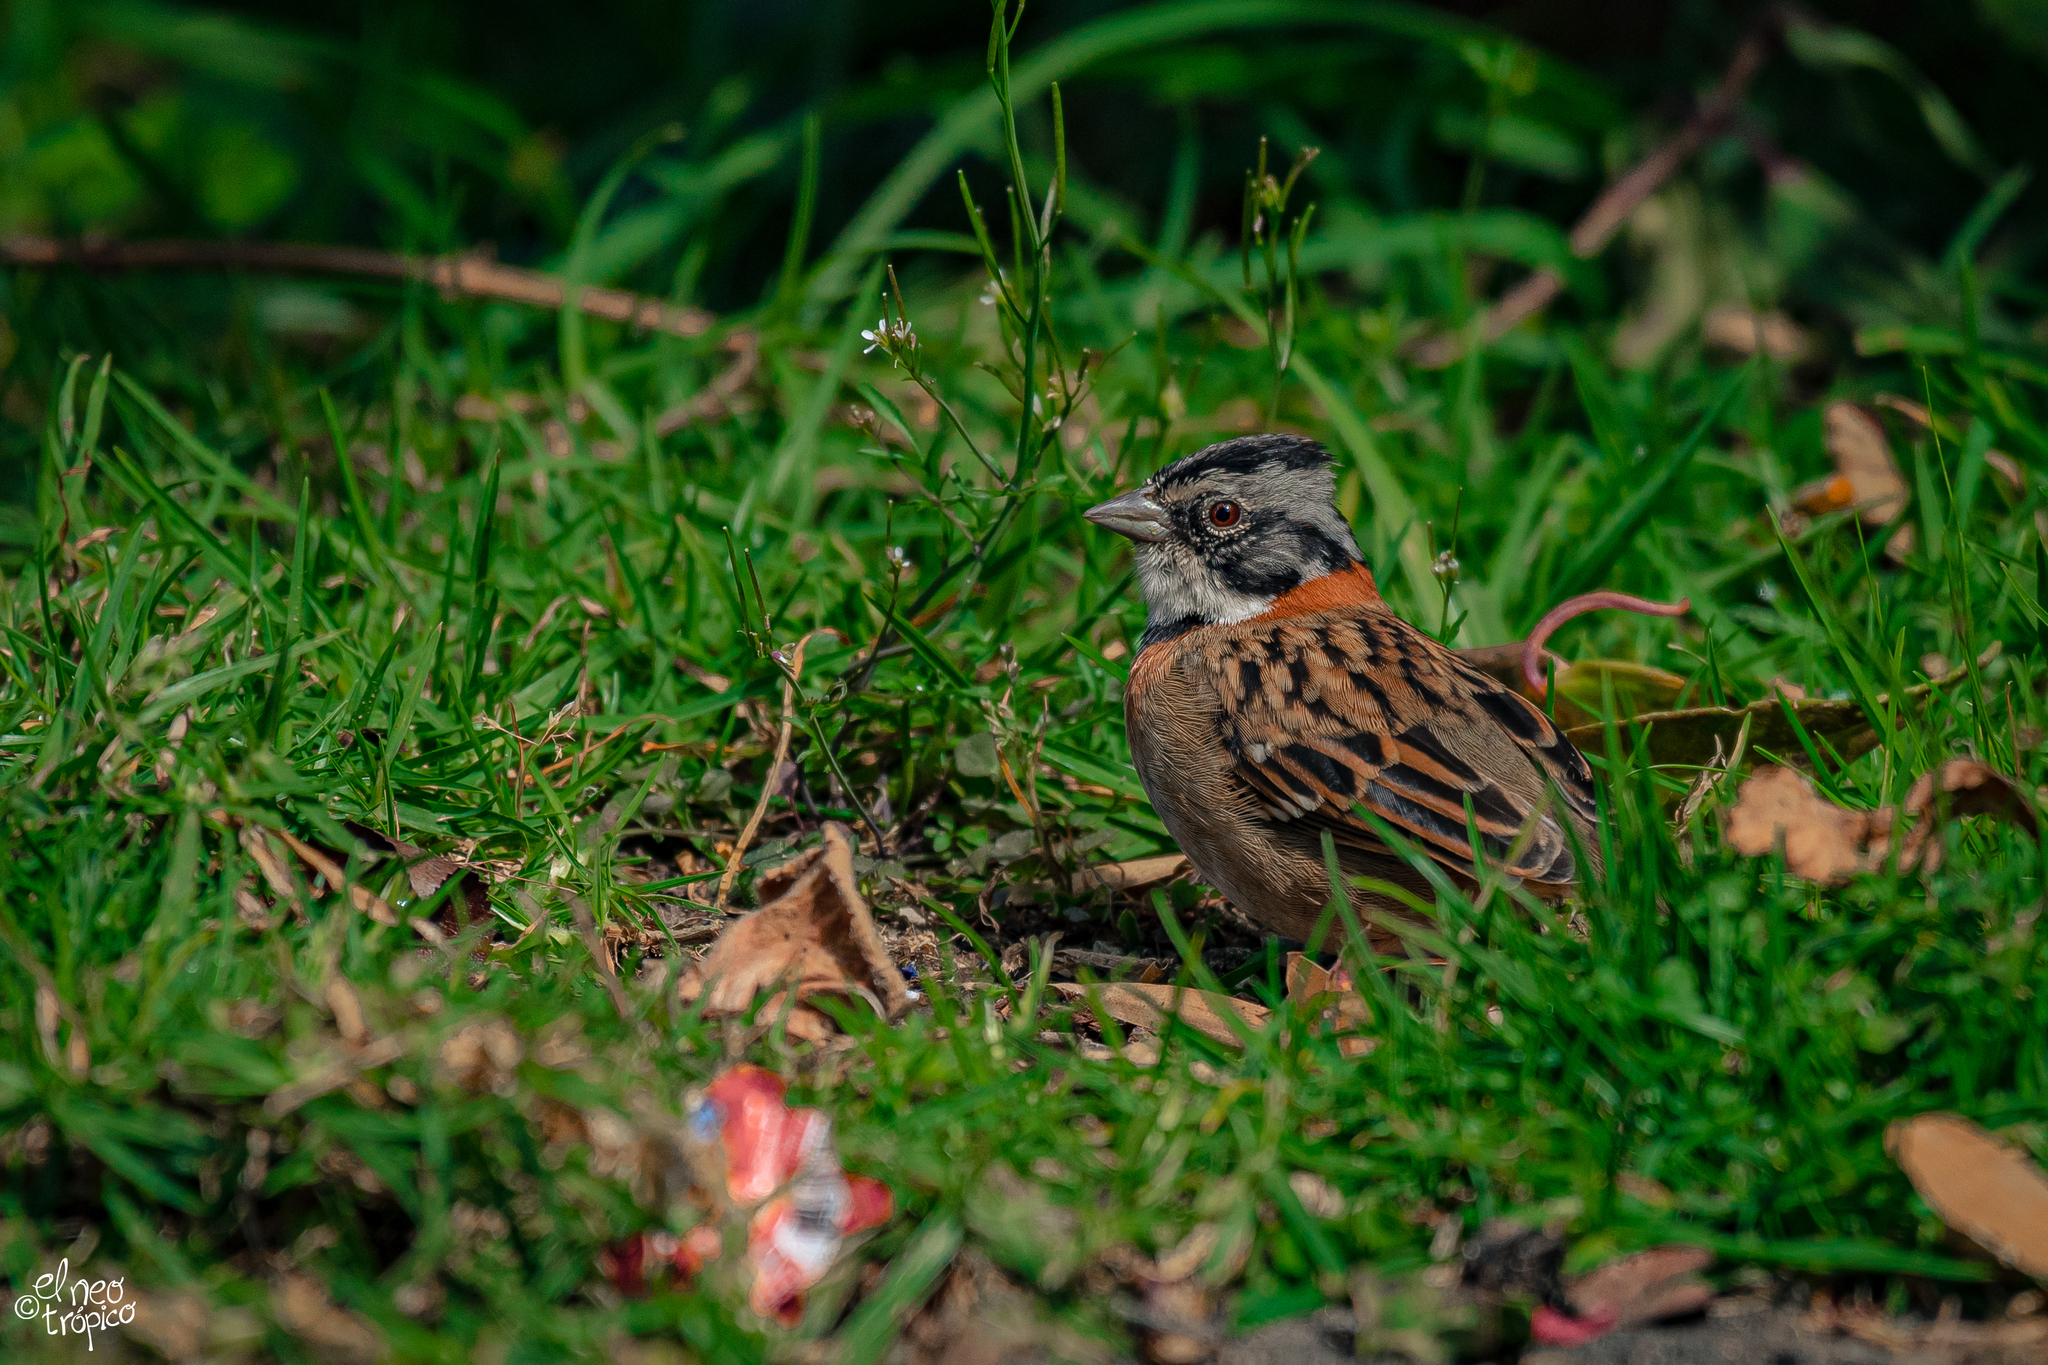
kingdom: Animalia
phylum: Chordata
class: Aves
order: Passeriformes
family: Passerellidae
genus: Zonotrichia
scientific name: Zonotrichia capensis
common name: Rufous-collared sparrow
